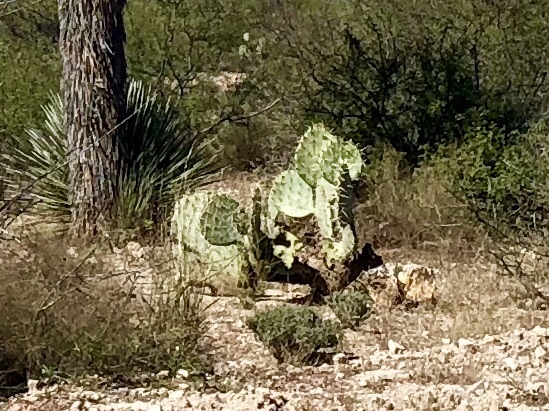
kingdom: Plantae
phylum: Tracheophyta
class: Magnoliopsida
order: Caryophyllales
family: Cactaceae
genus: Opuntia
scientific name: Opuntia engelmannii
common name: Cactus-apple
